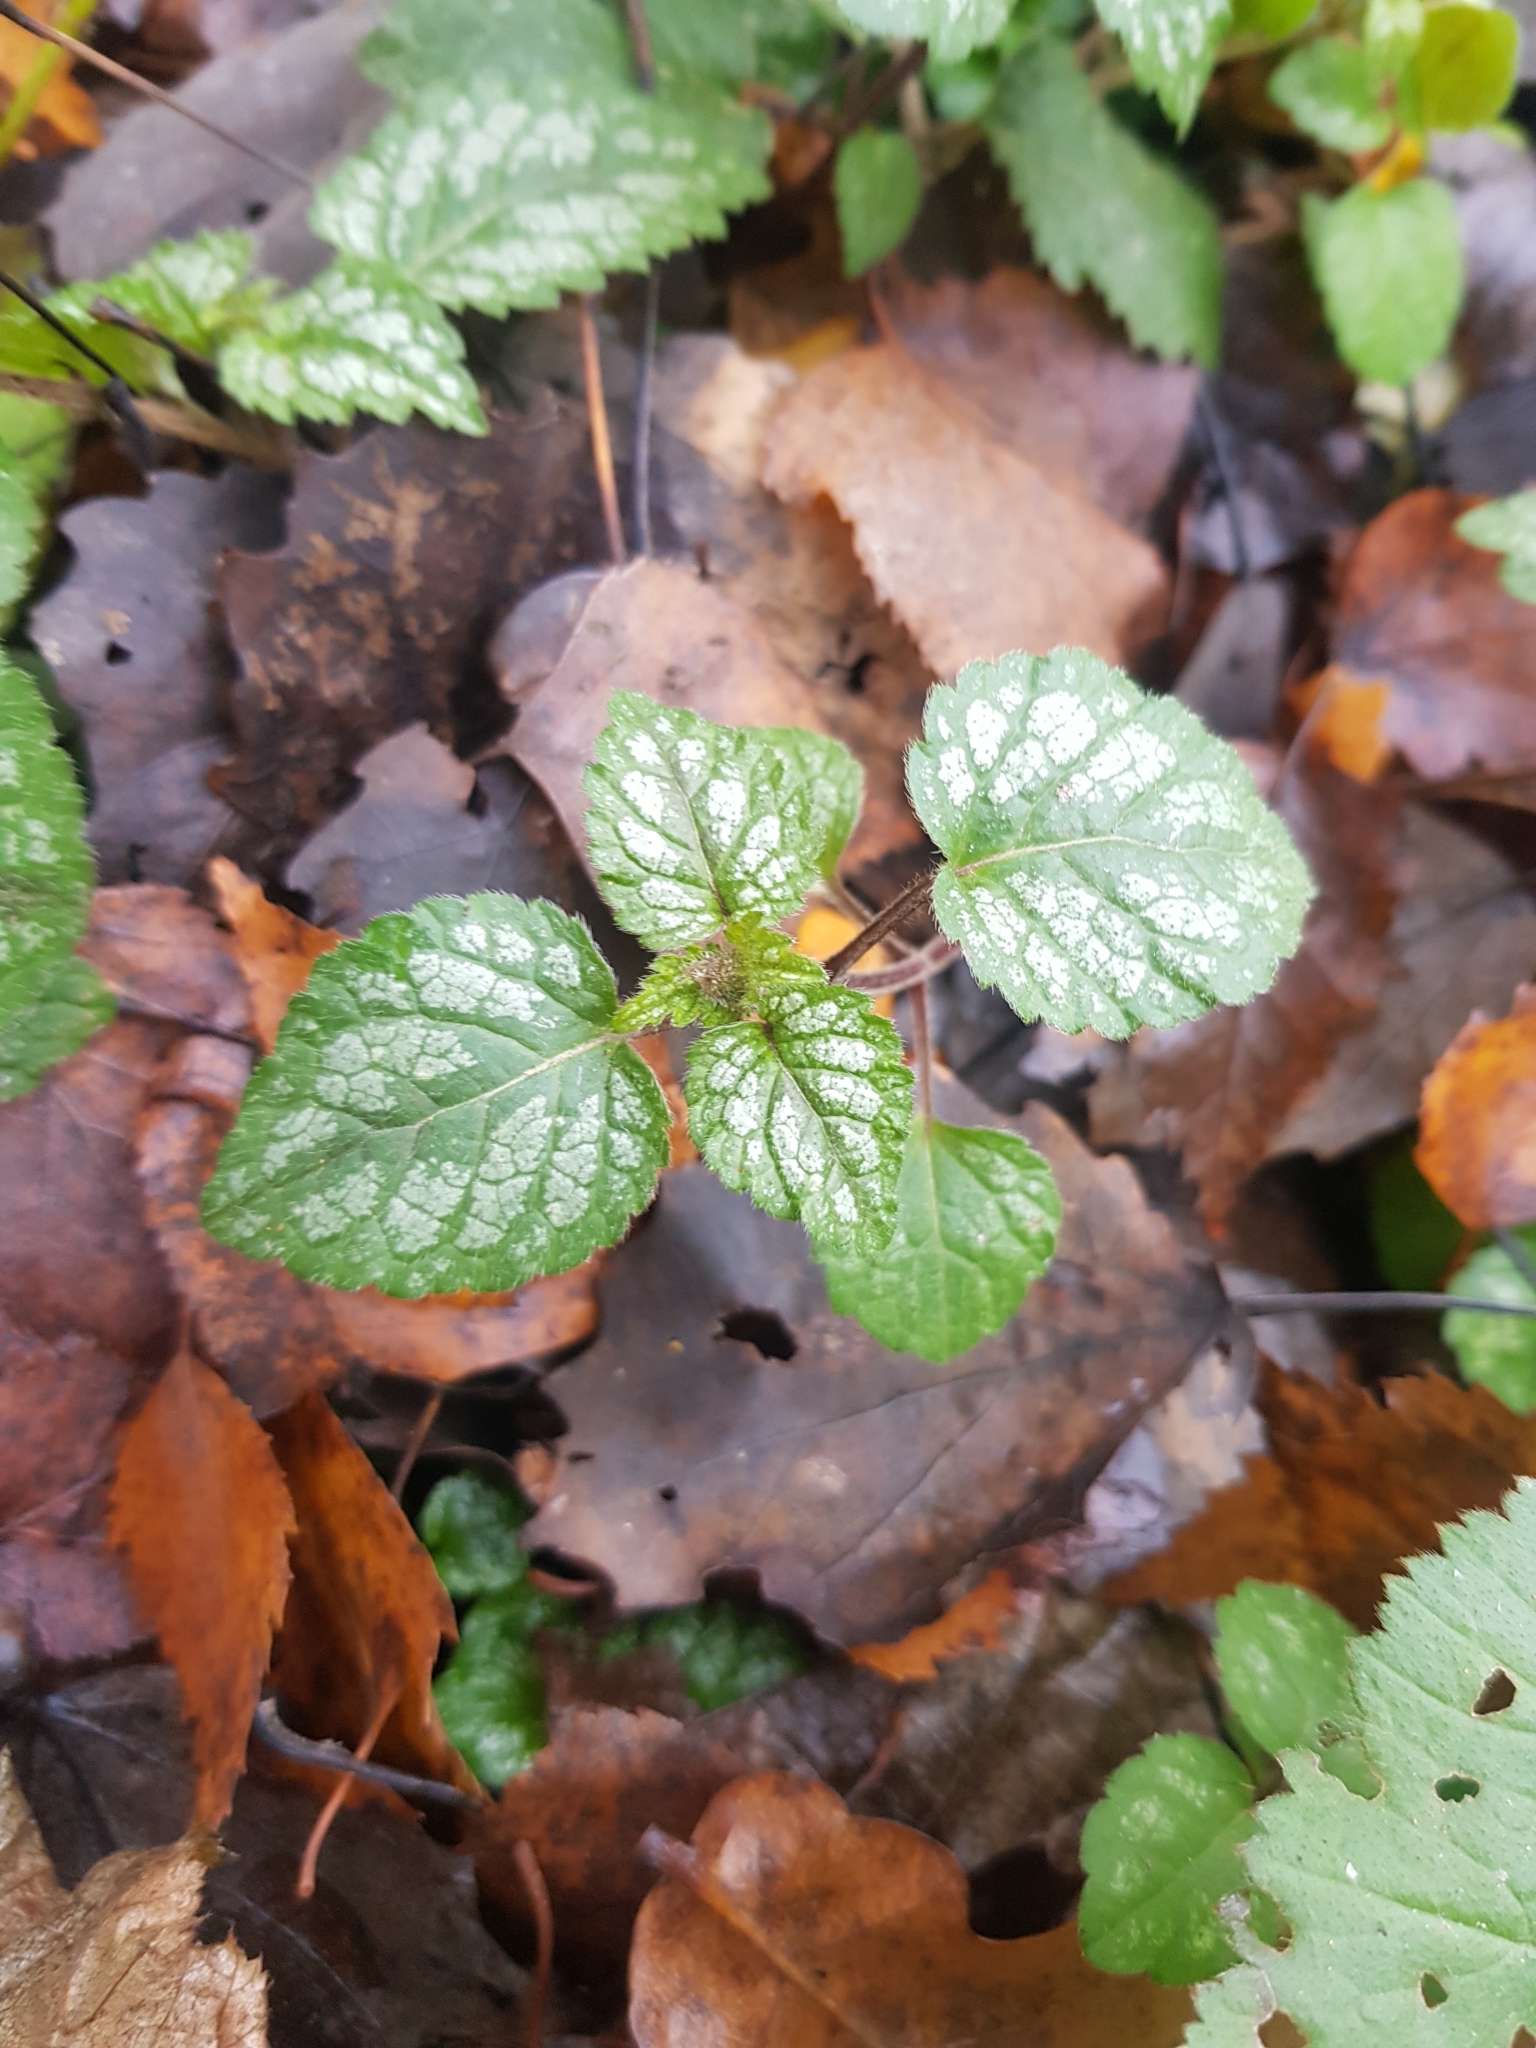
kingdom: Plantae
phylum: Tracheophyta
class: Magnoliopsida
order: Lamiales
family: Lamiaceae
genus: Lamium
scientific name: Lamium galeobdolon
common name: Yellow archangel
